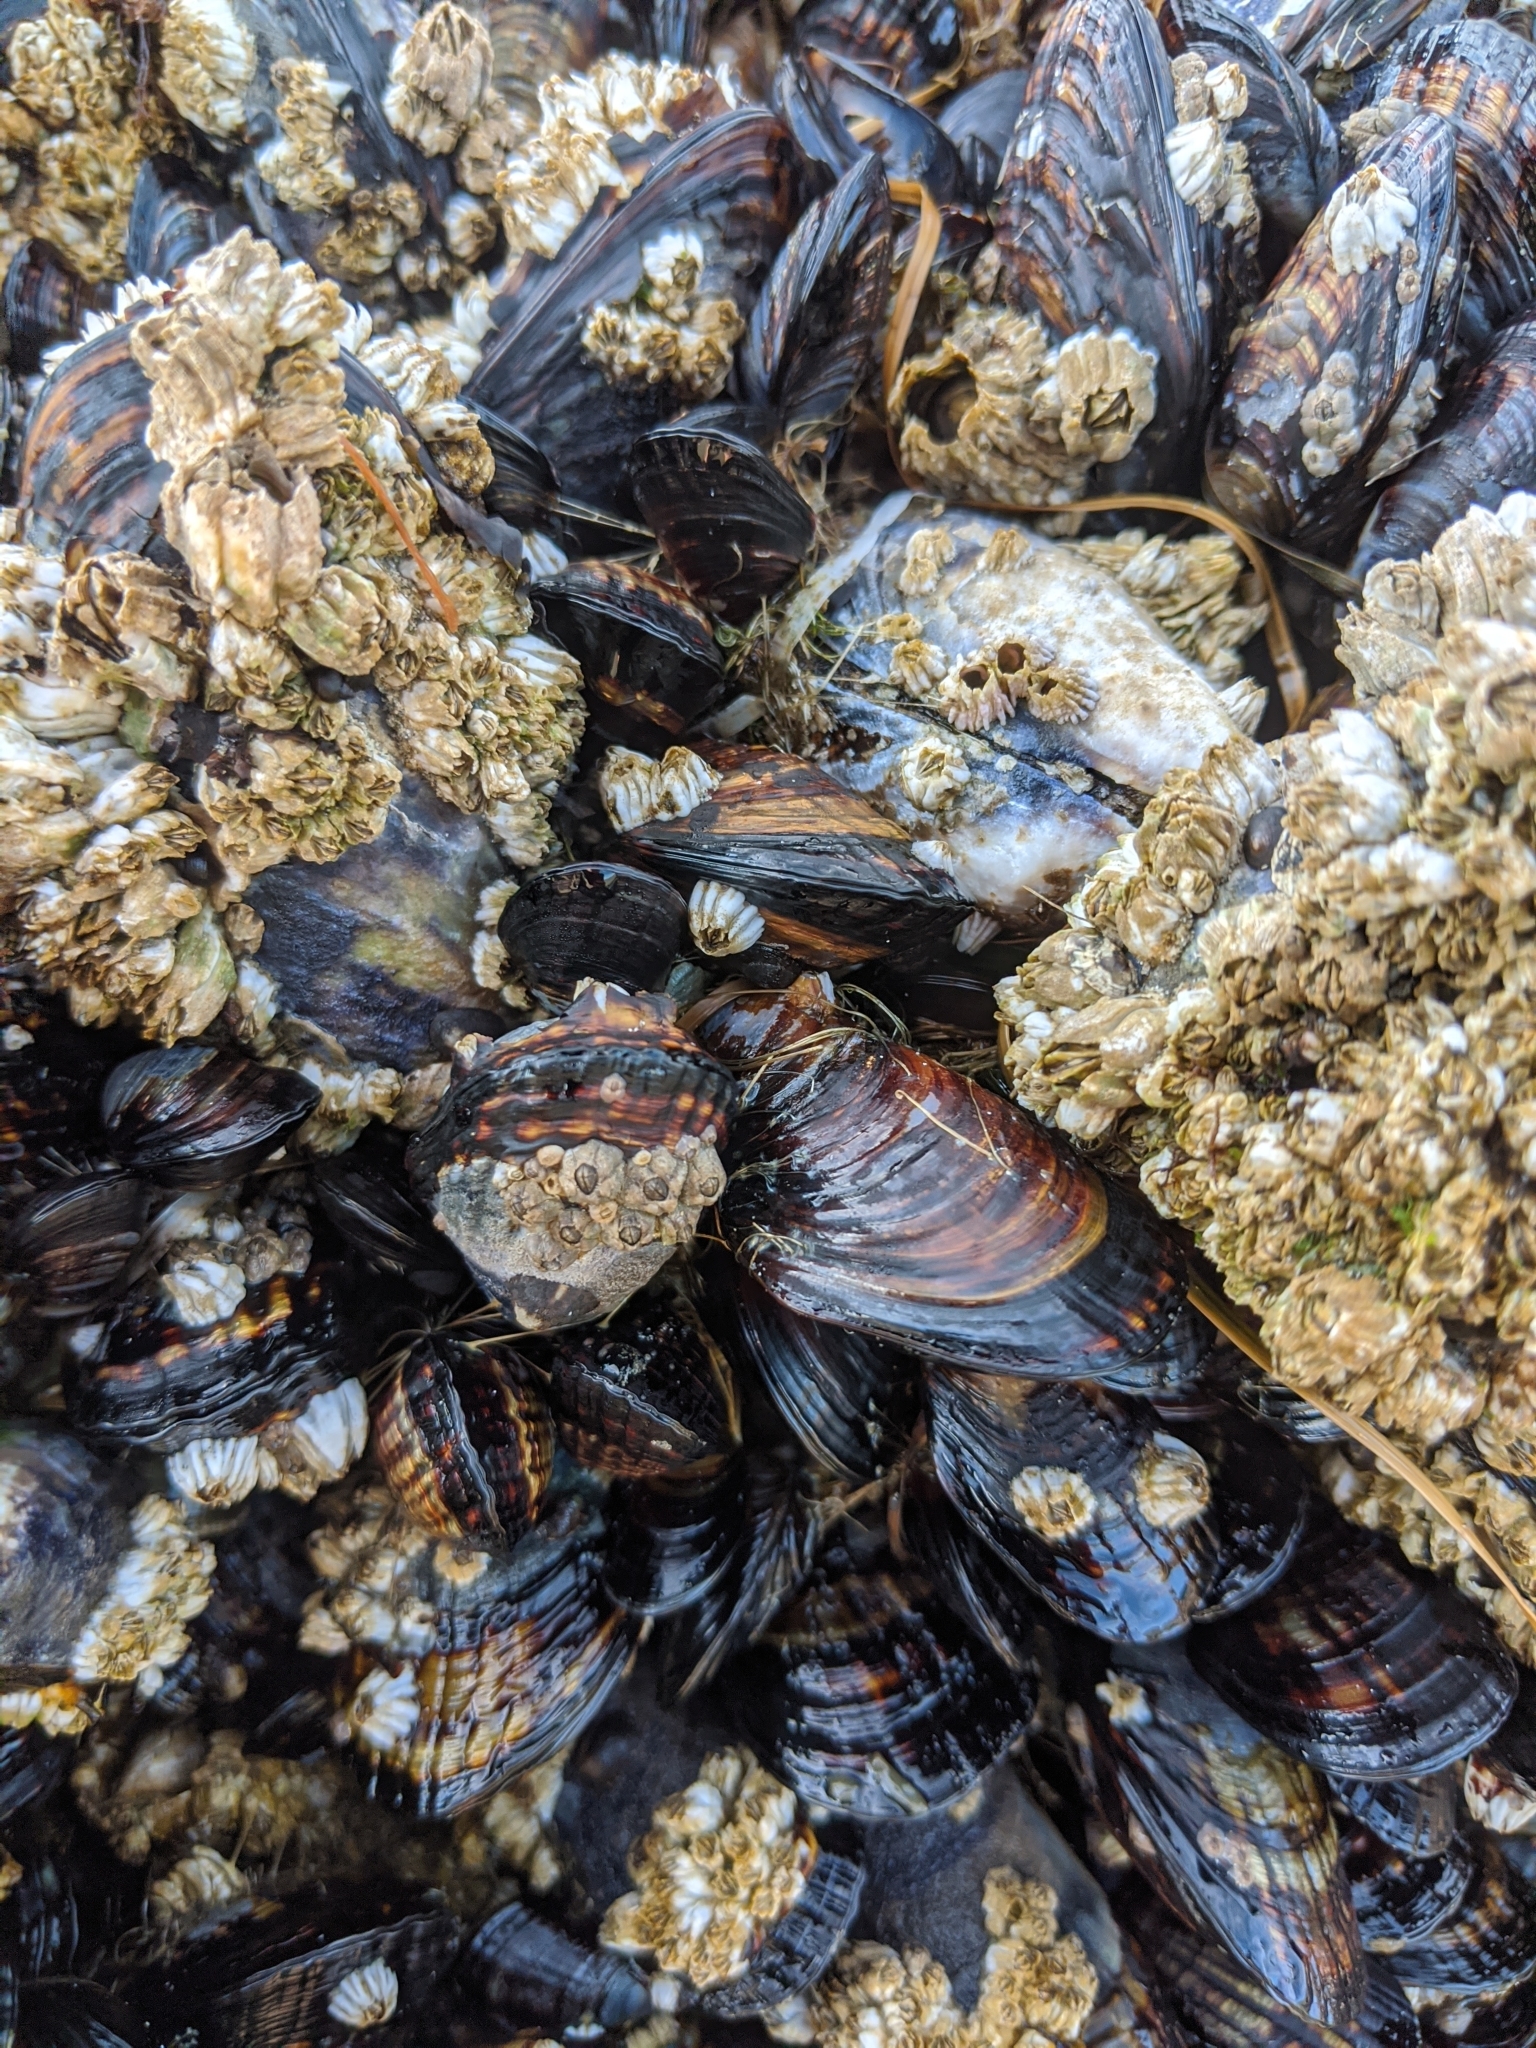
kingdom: Animalia
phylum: Mollusca
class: Bivalvia
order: Mytilida
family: Mytilidae
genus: Mytilus
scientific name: Mytilus californianus
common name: California mussel
